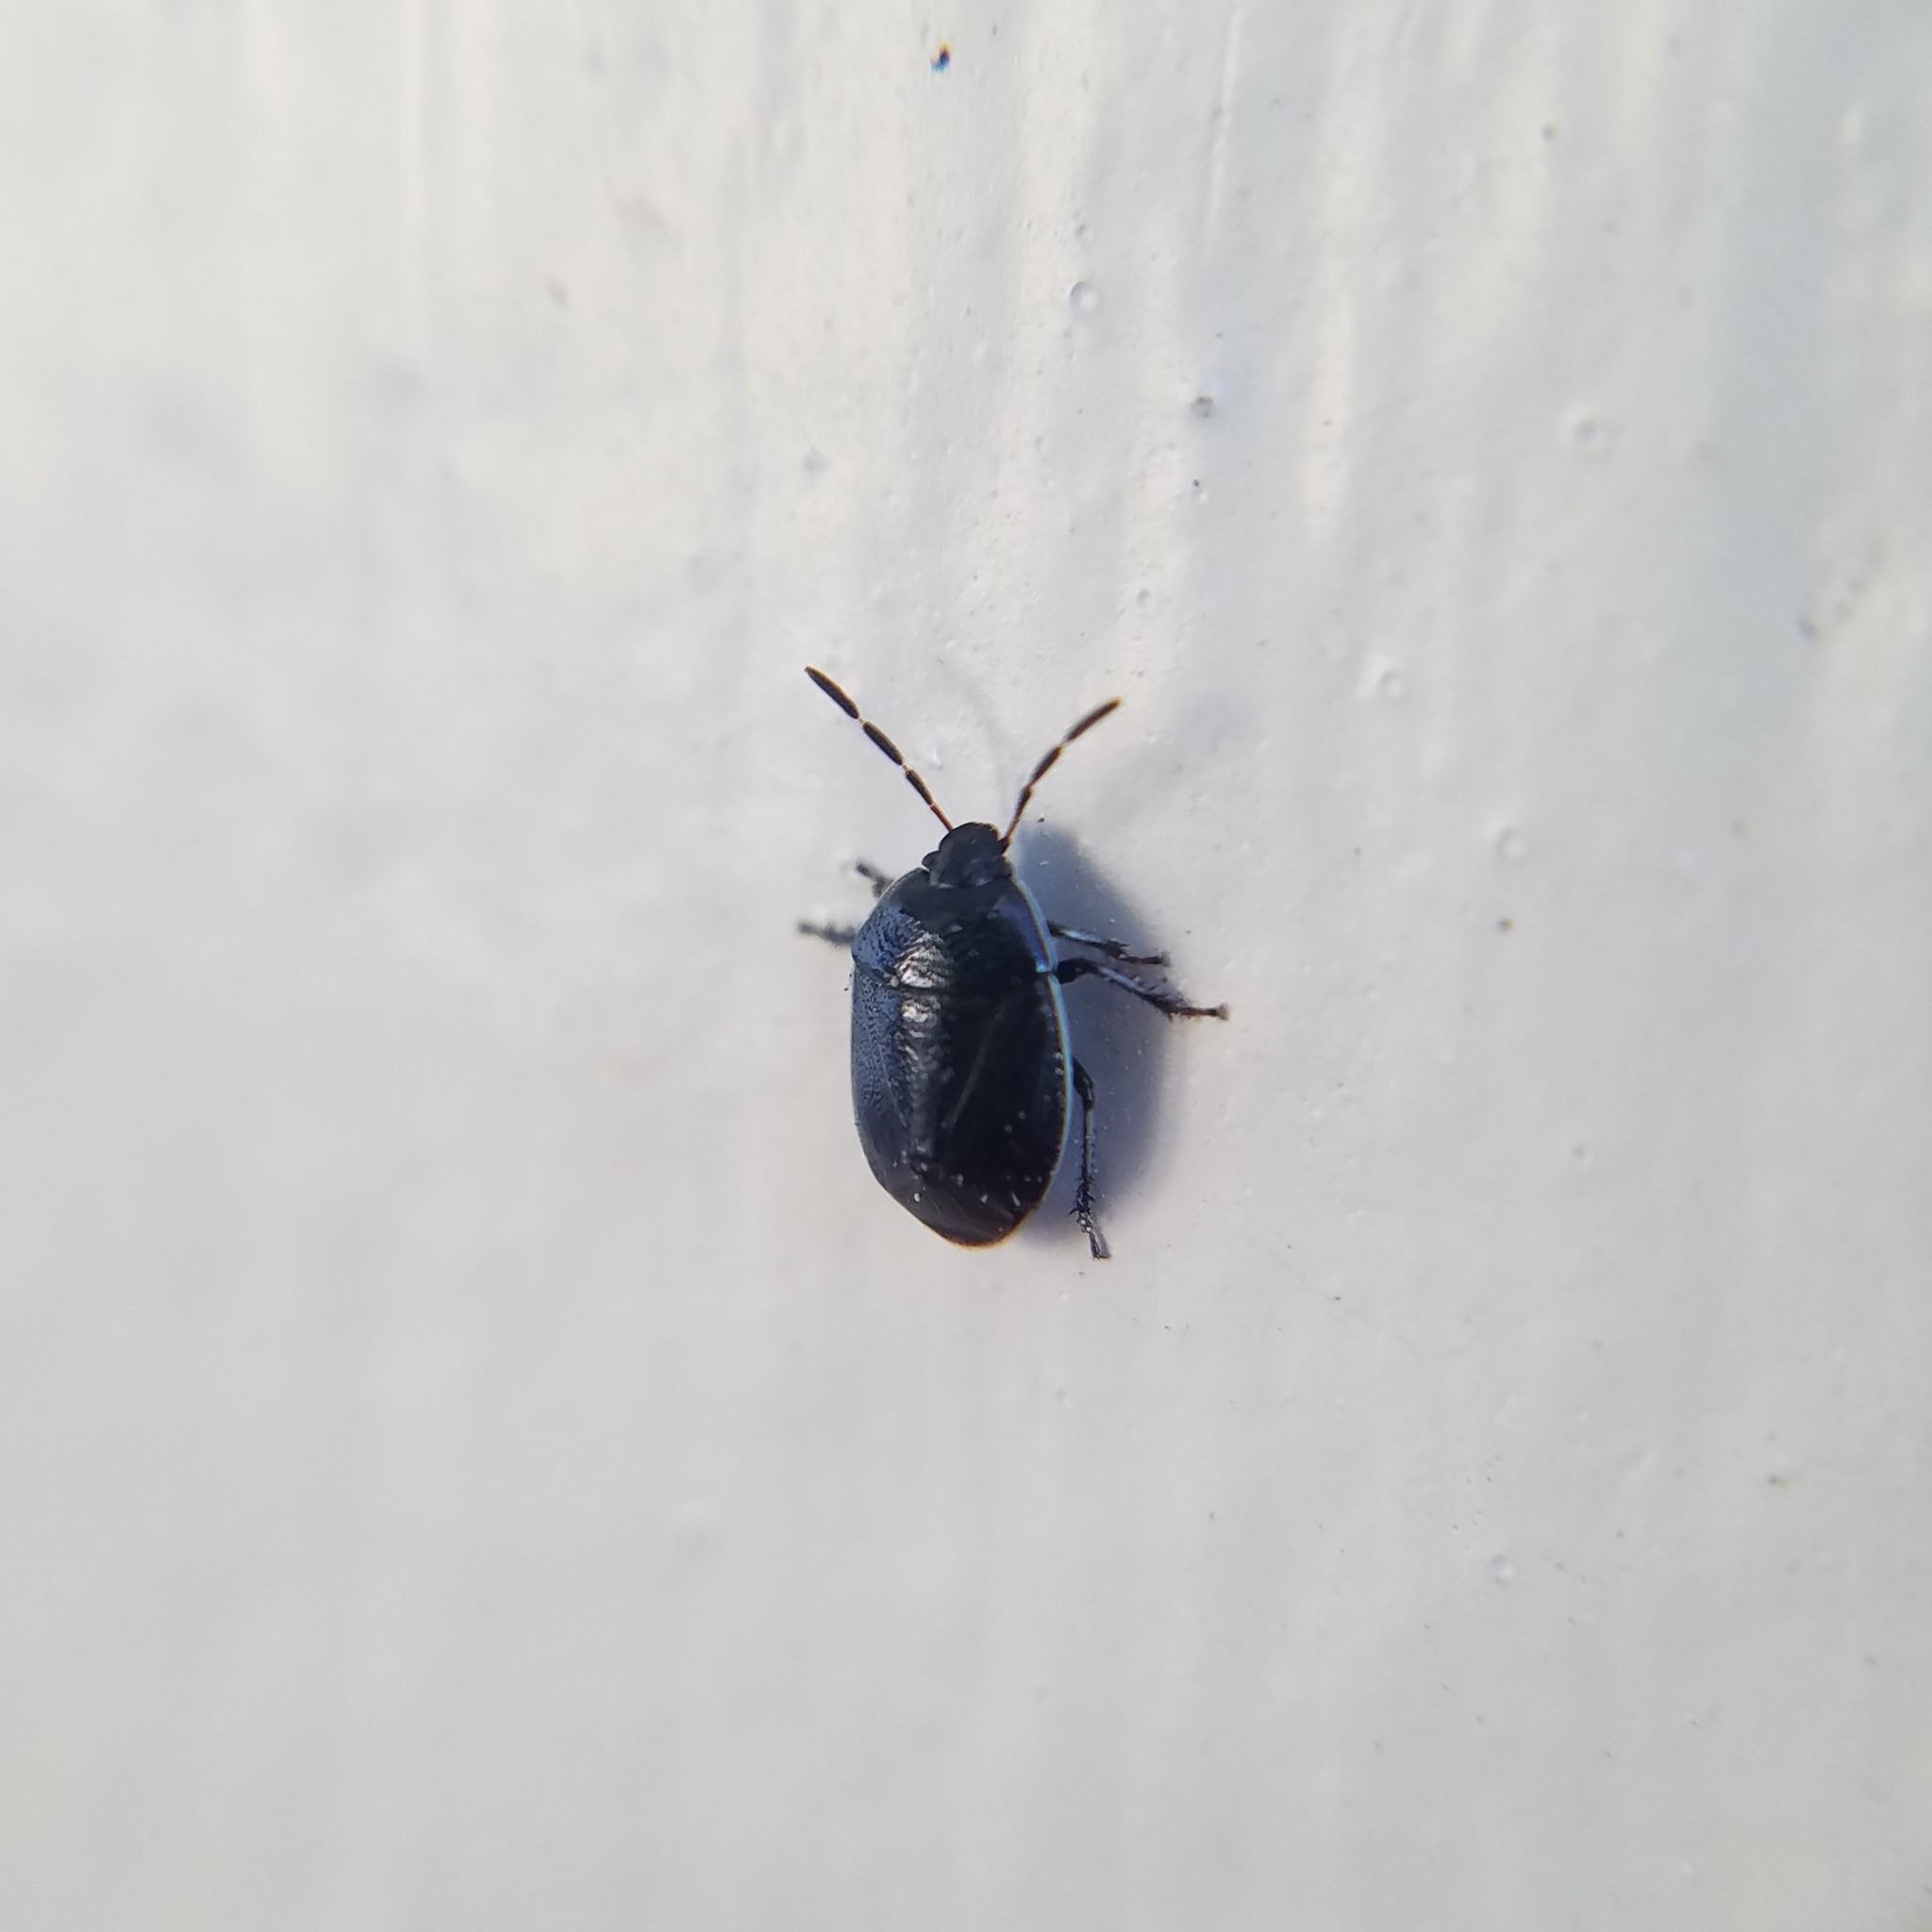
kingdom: Animalia
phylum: Arthropoda
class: Insecta
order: Hemiptera
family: Cydnidae
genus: Sehirus
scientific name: Sehirus cinctus
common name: White-margined burrower bug
